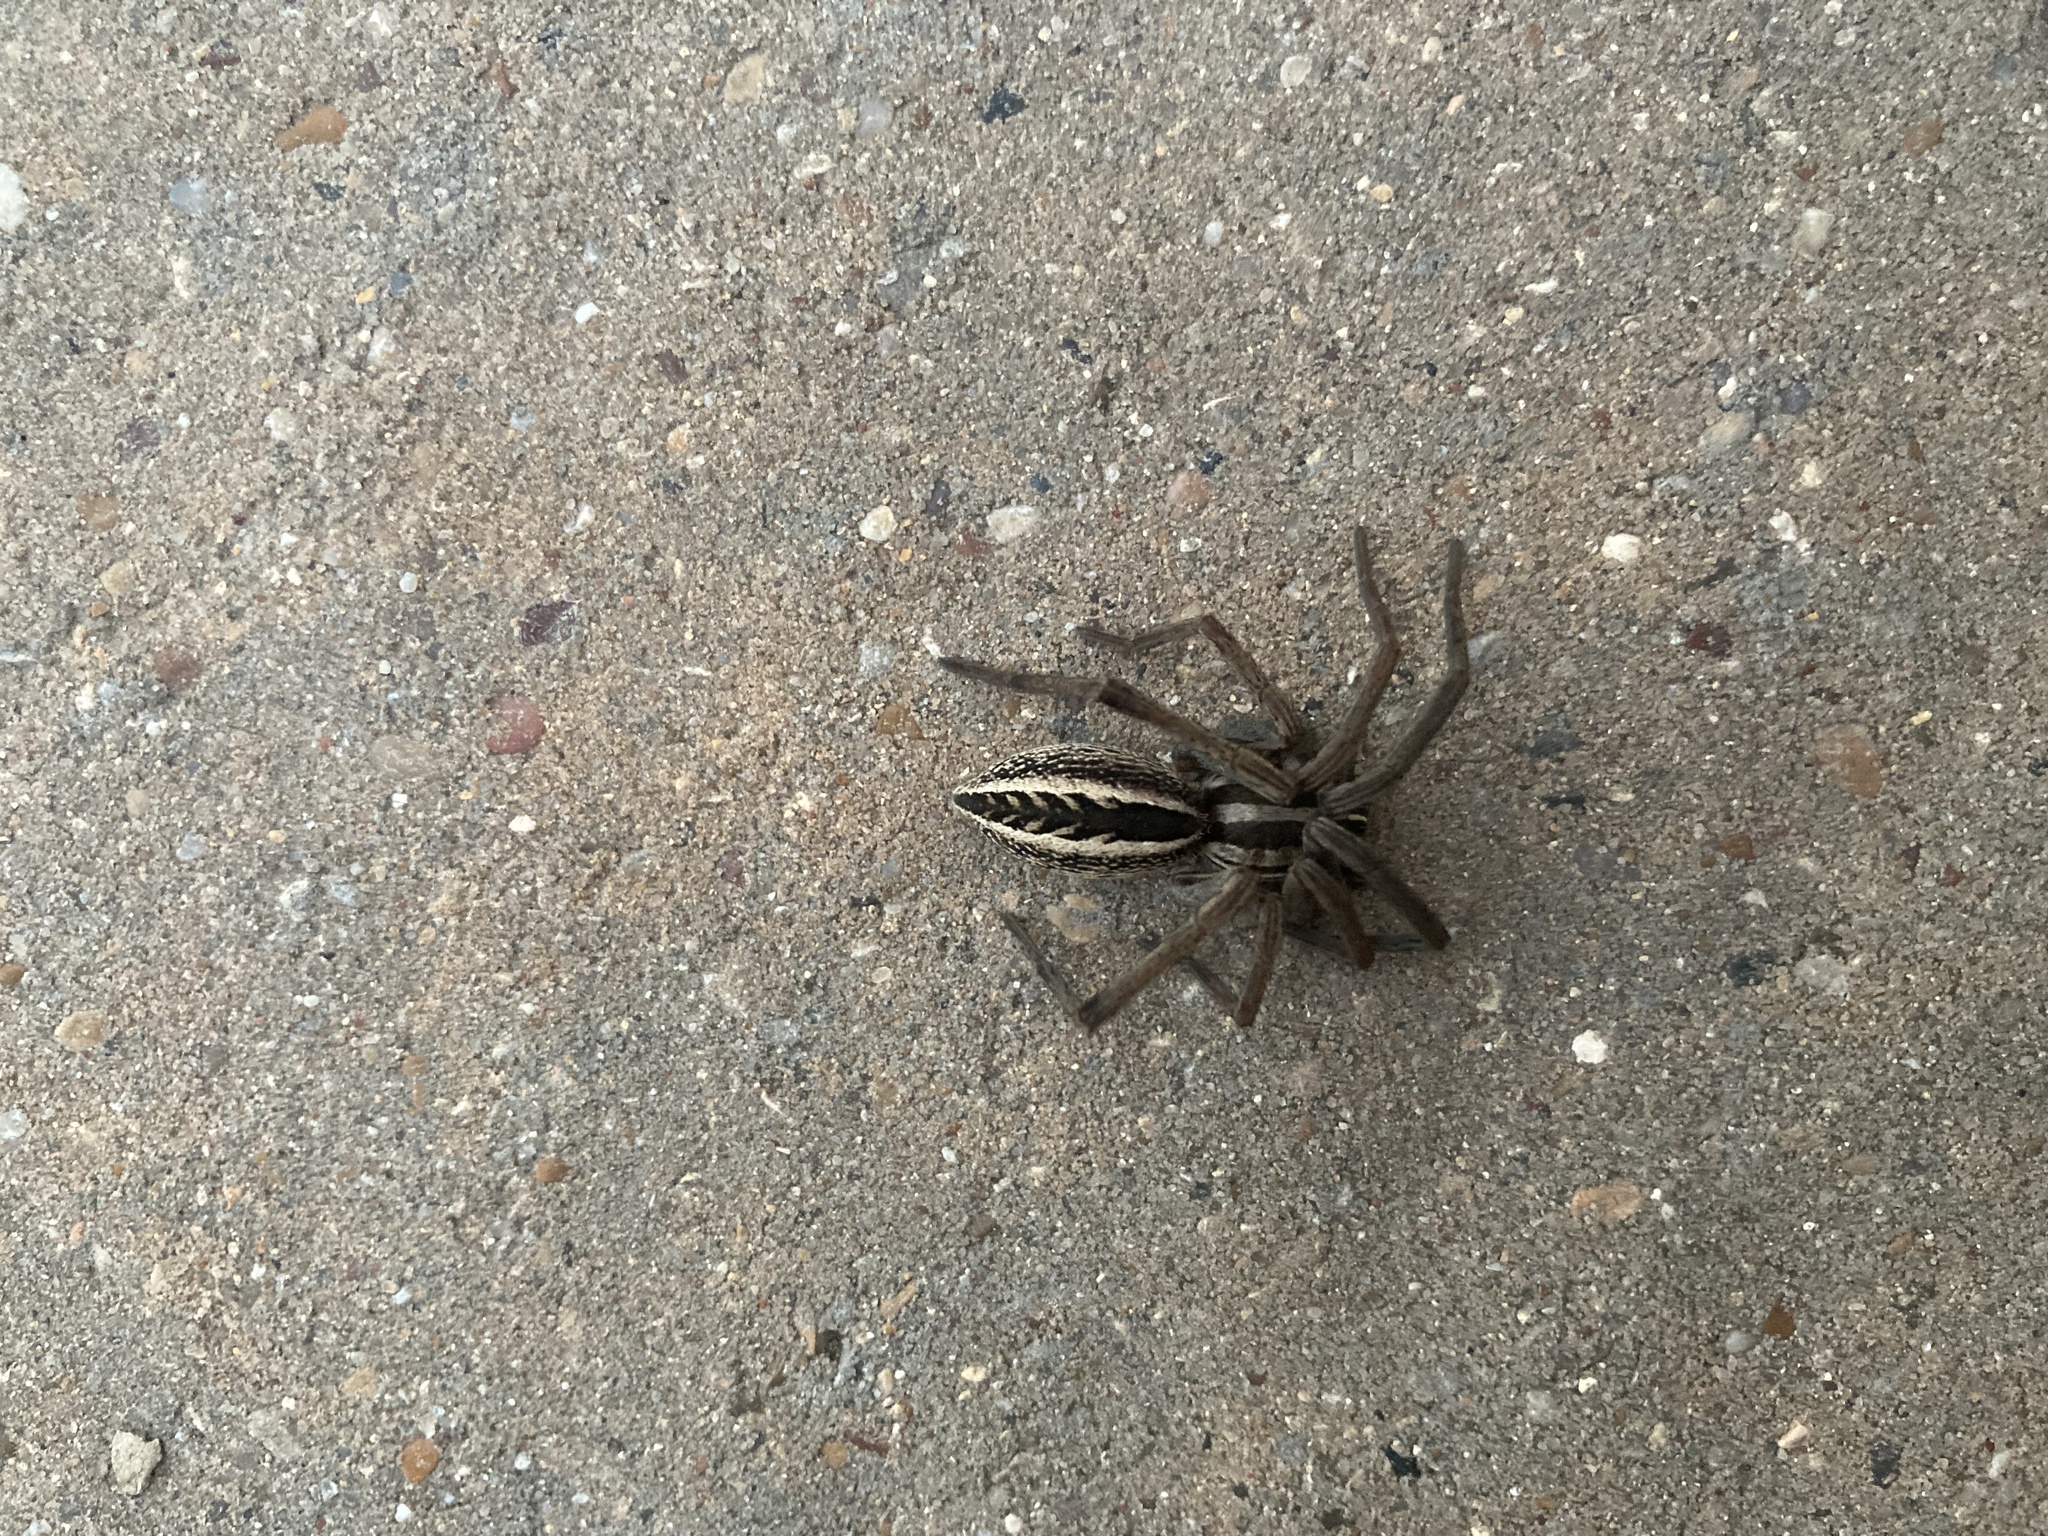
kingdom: Animalia
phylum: Arthropoda
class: Arachnida
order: Araneae
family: Lycosidae
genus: Rabidosa
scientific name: Rabidosa rabida
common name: Rabid wolf spider
